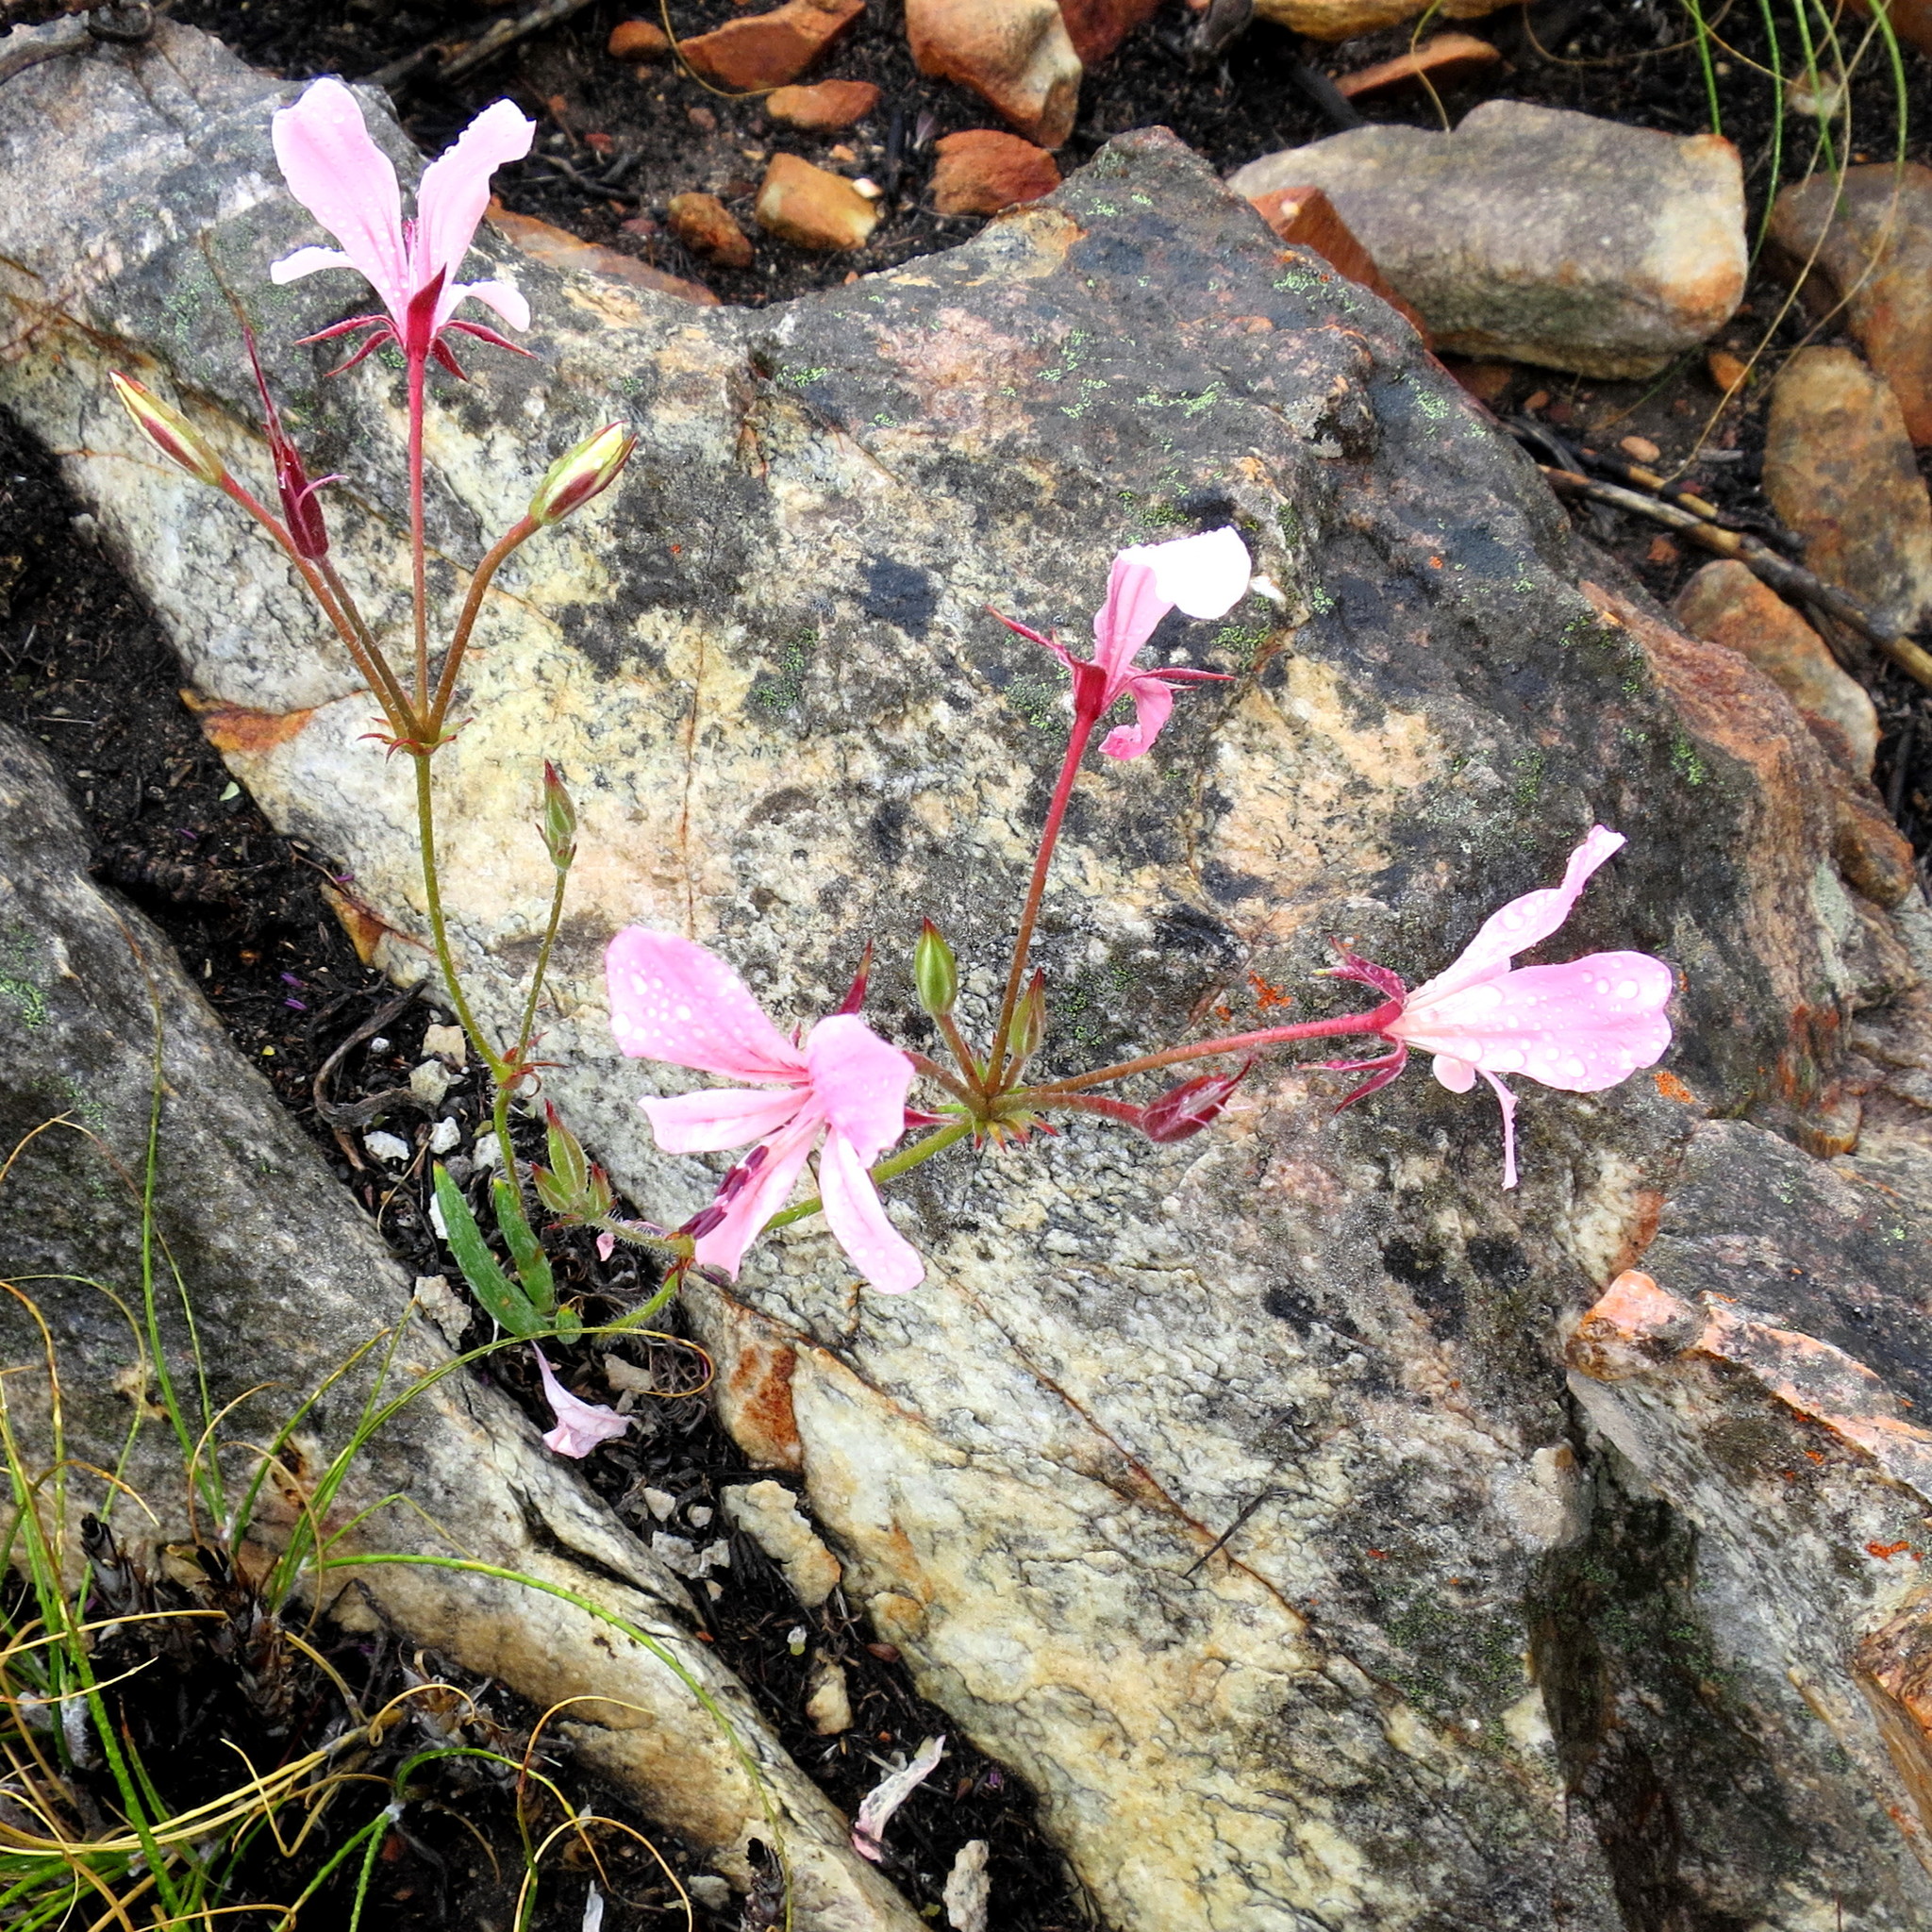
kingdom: Plantae
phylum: Tracheophyta
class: Magnoliopsida
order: Geraniales
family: Geraniaceae
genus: Pelargonium
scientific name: Pelargonium carneum
